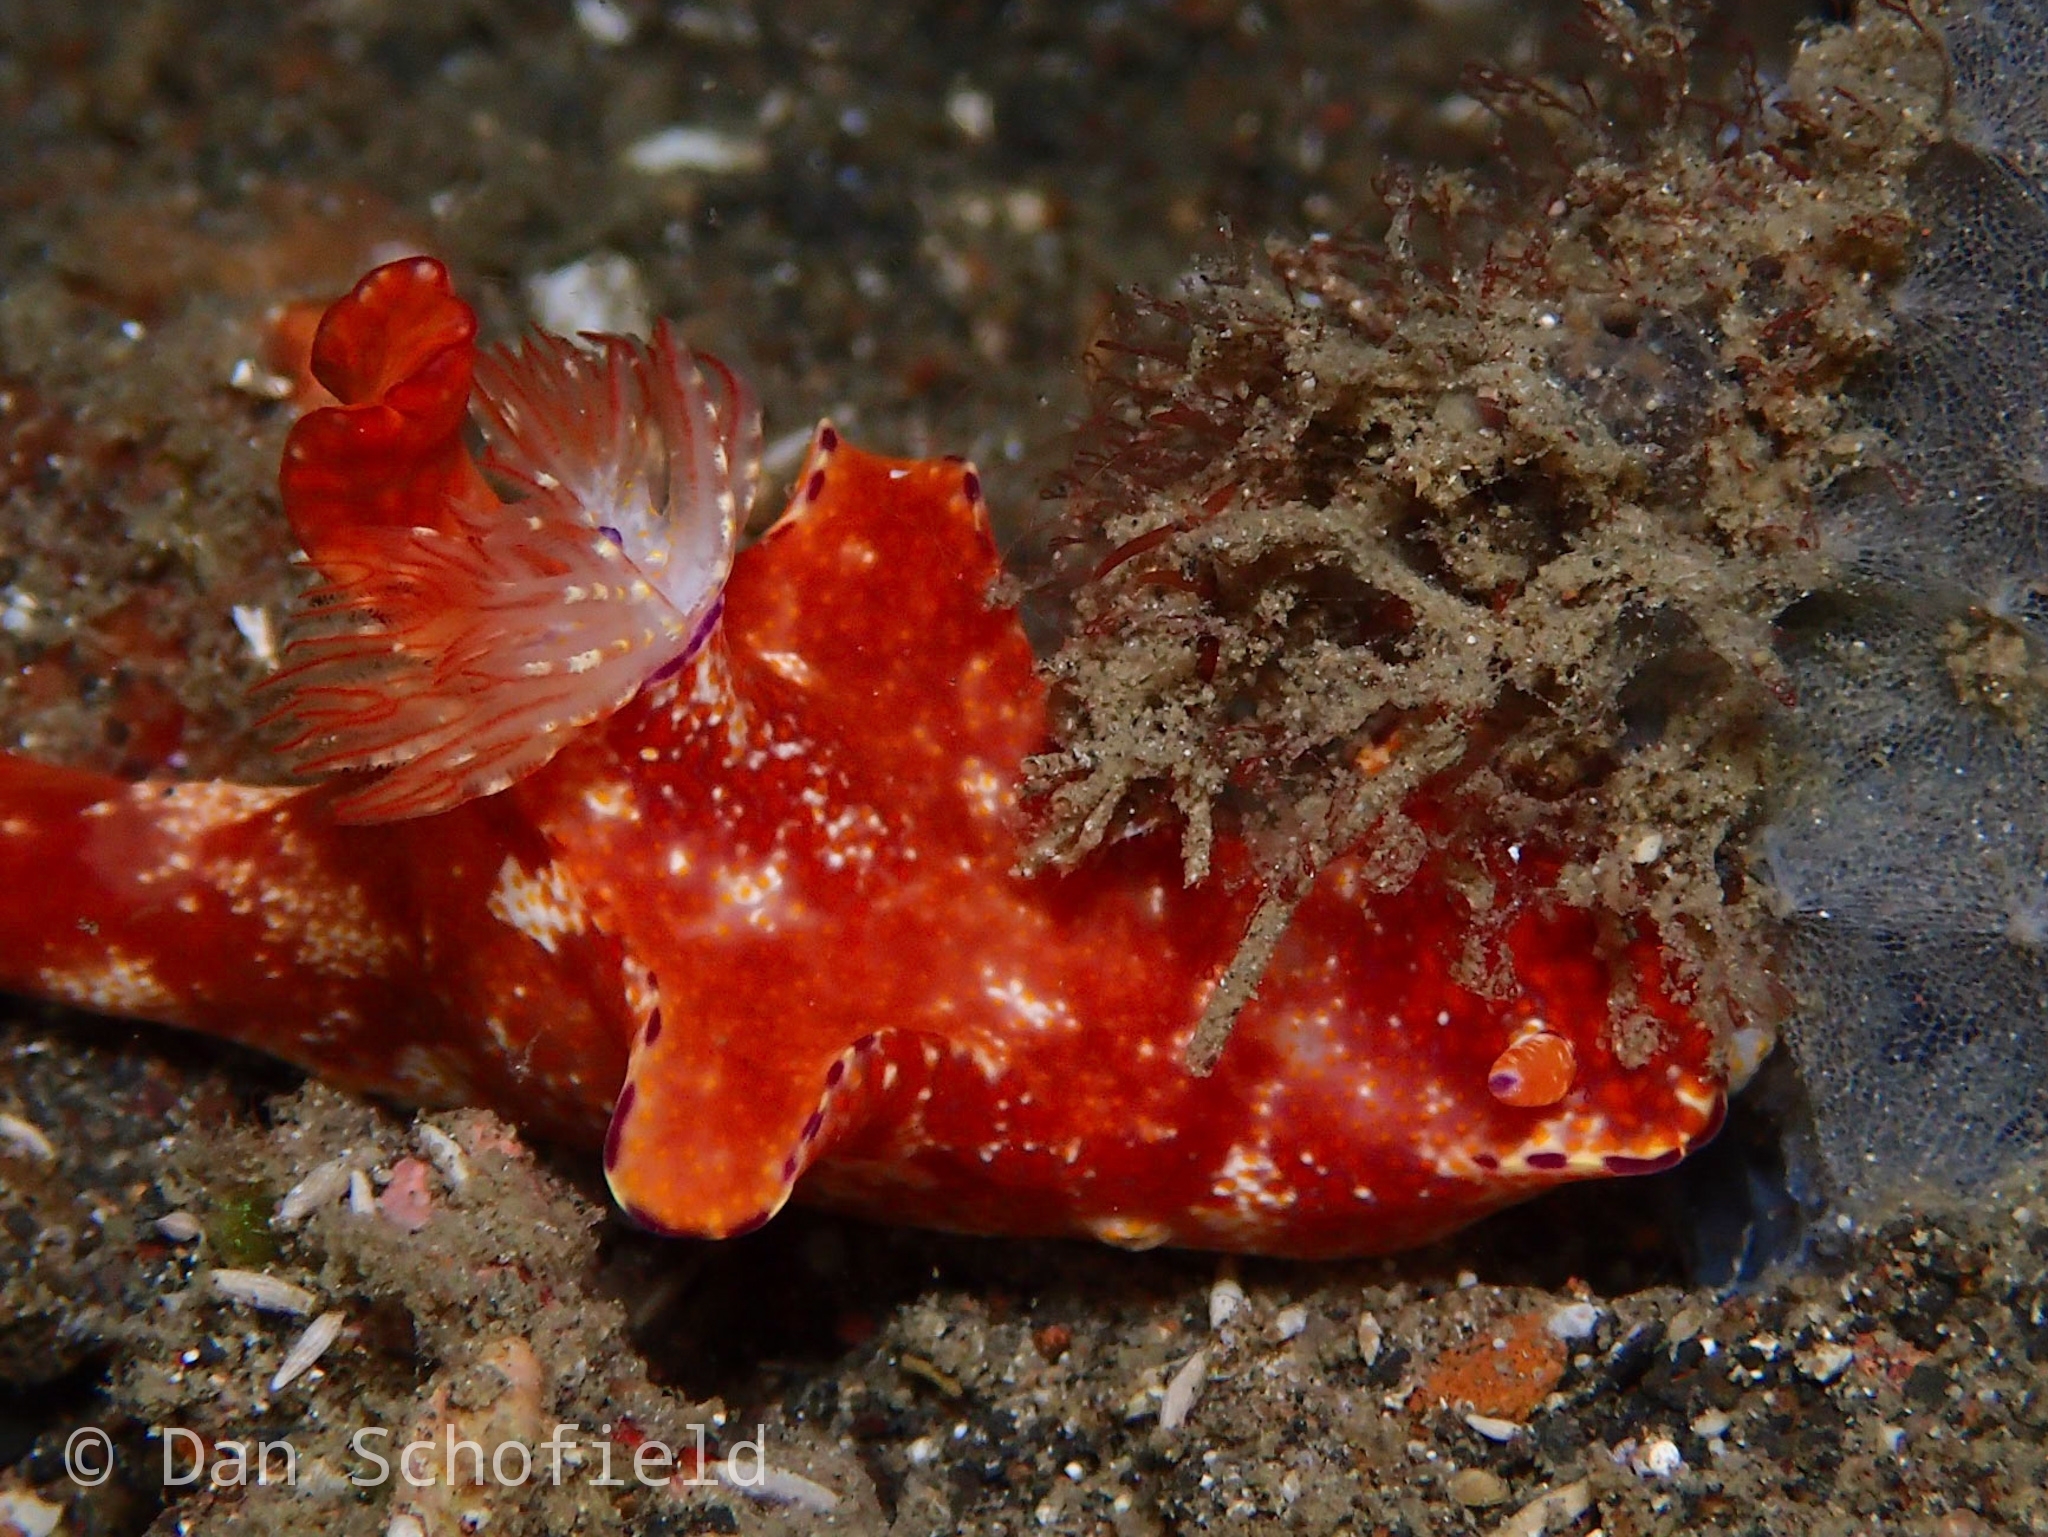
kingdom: Animalia
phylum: Mollusca
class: Gastropoda
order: Nudibranchia
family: Chromodorididae
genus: Ceratosoma
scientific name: Ceratosoma gracillimum
